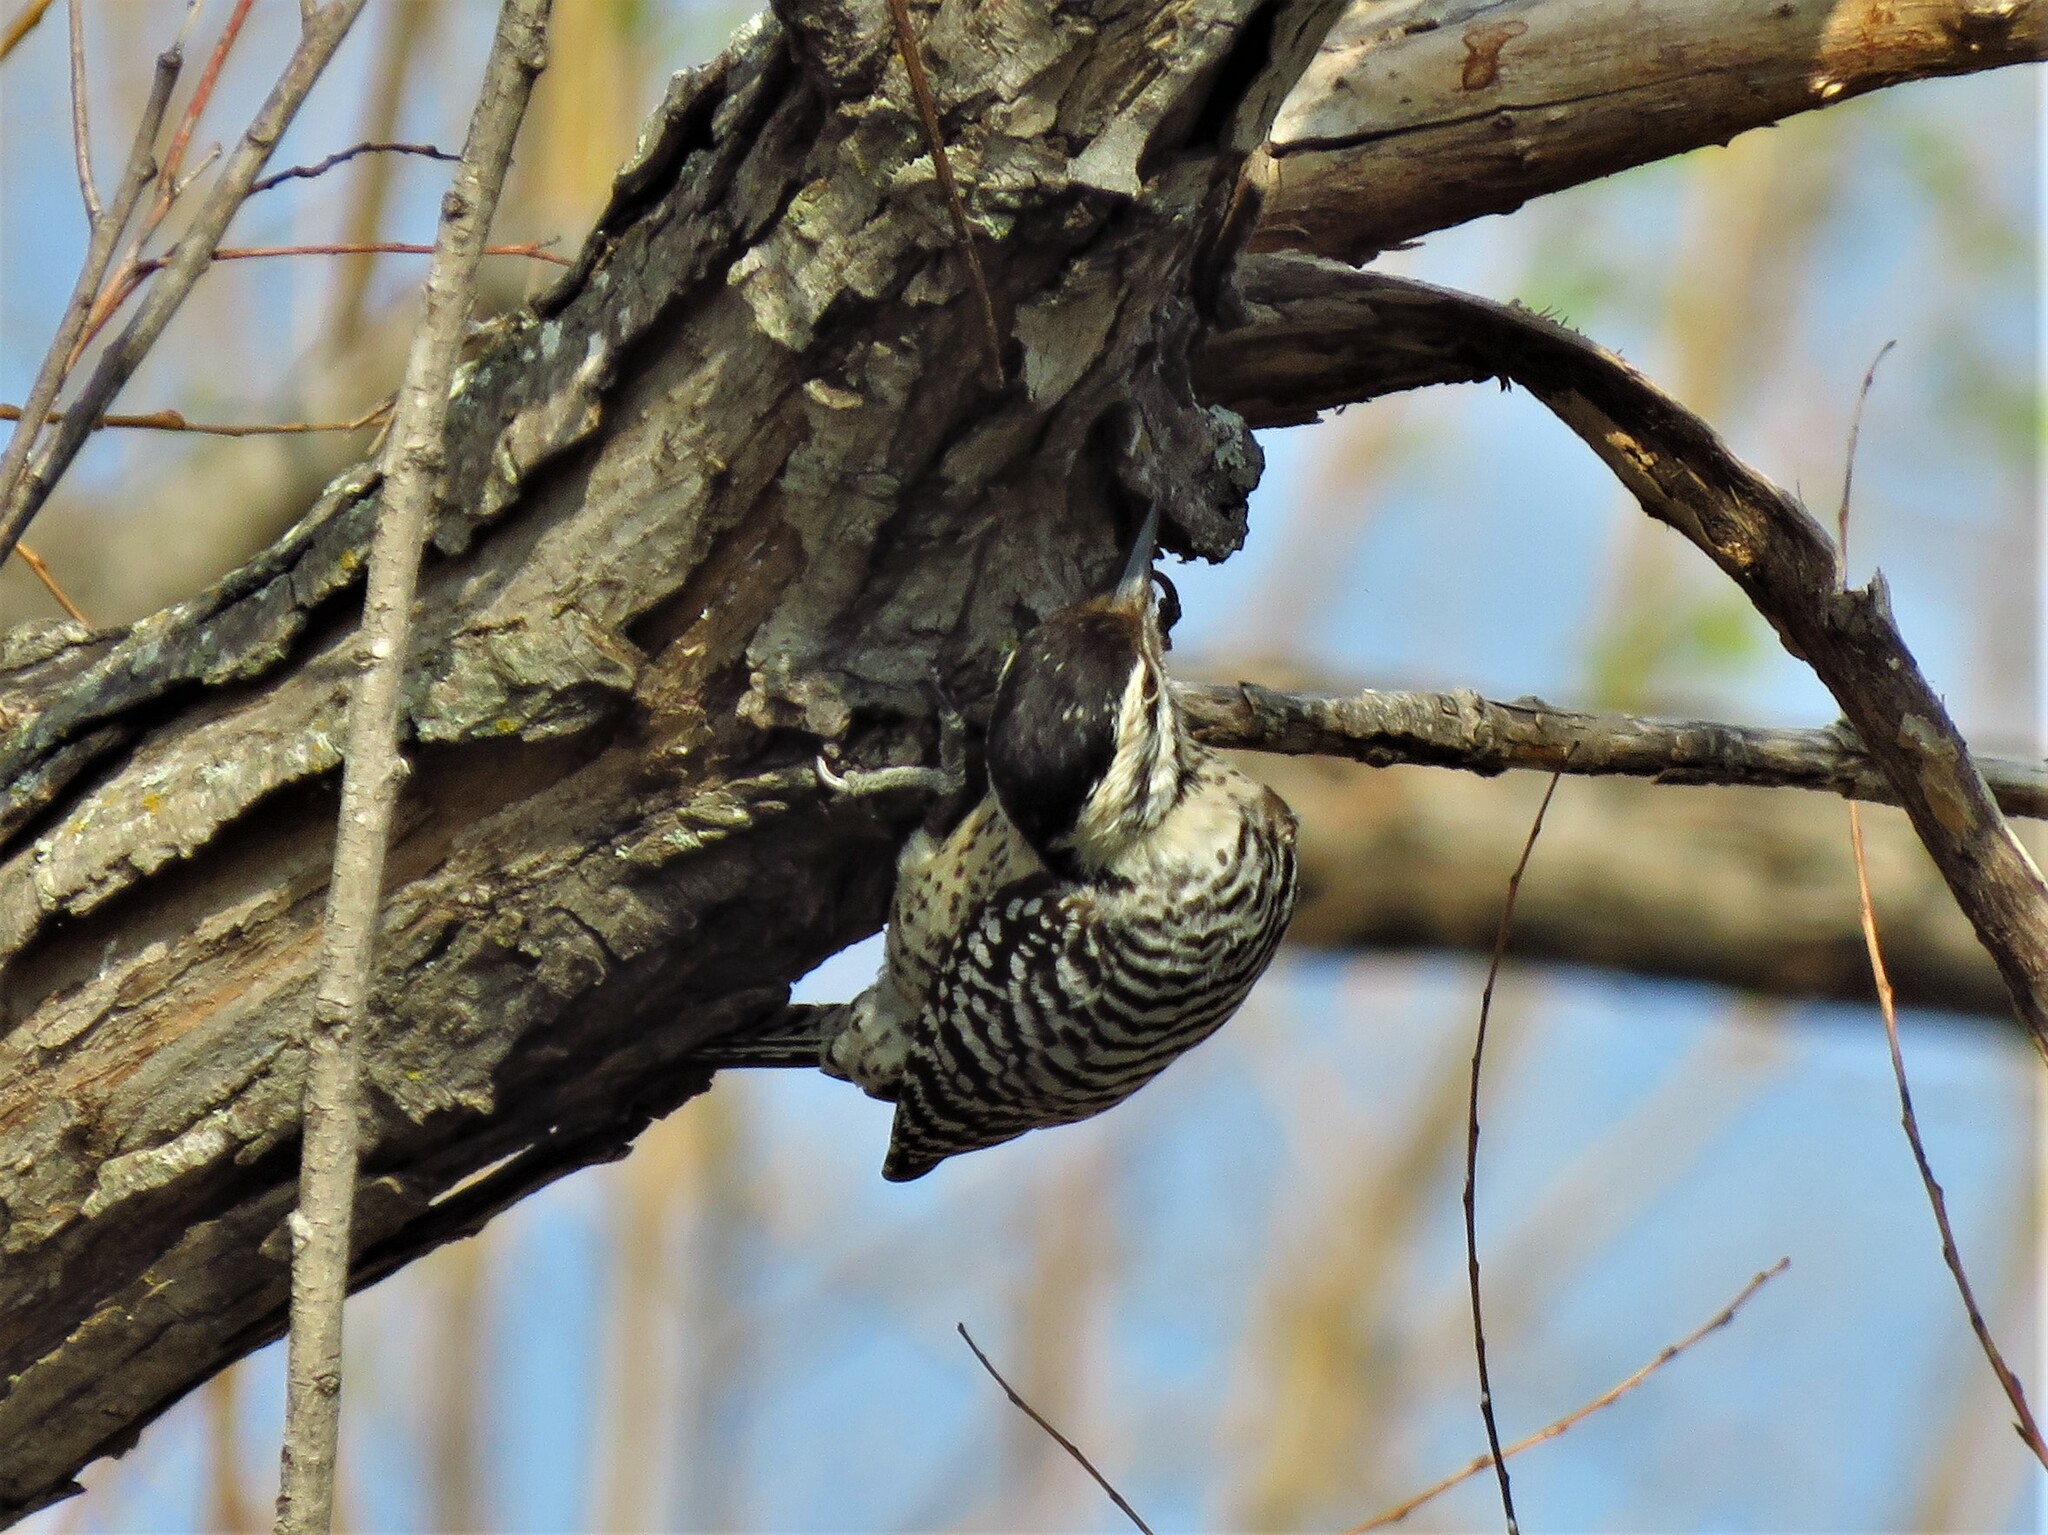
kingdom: Animalia
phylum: Chordata
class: Aves
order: Piciformes
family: Picidae
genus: Dryobates
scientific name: Dryobates scalaris
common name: Ladder-backed woodpecker
